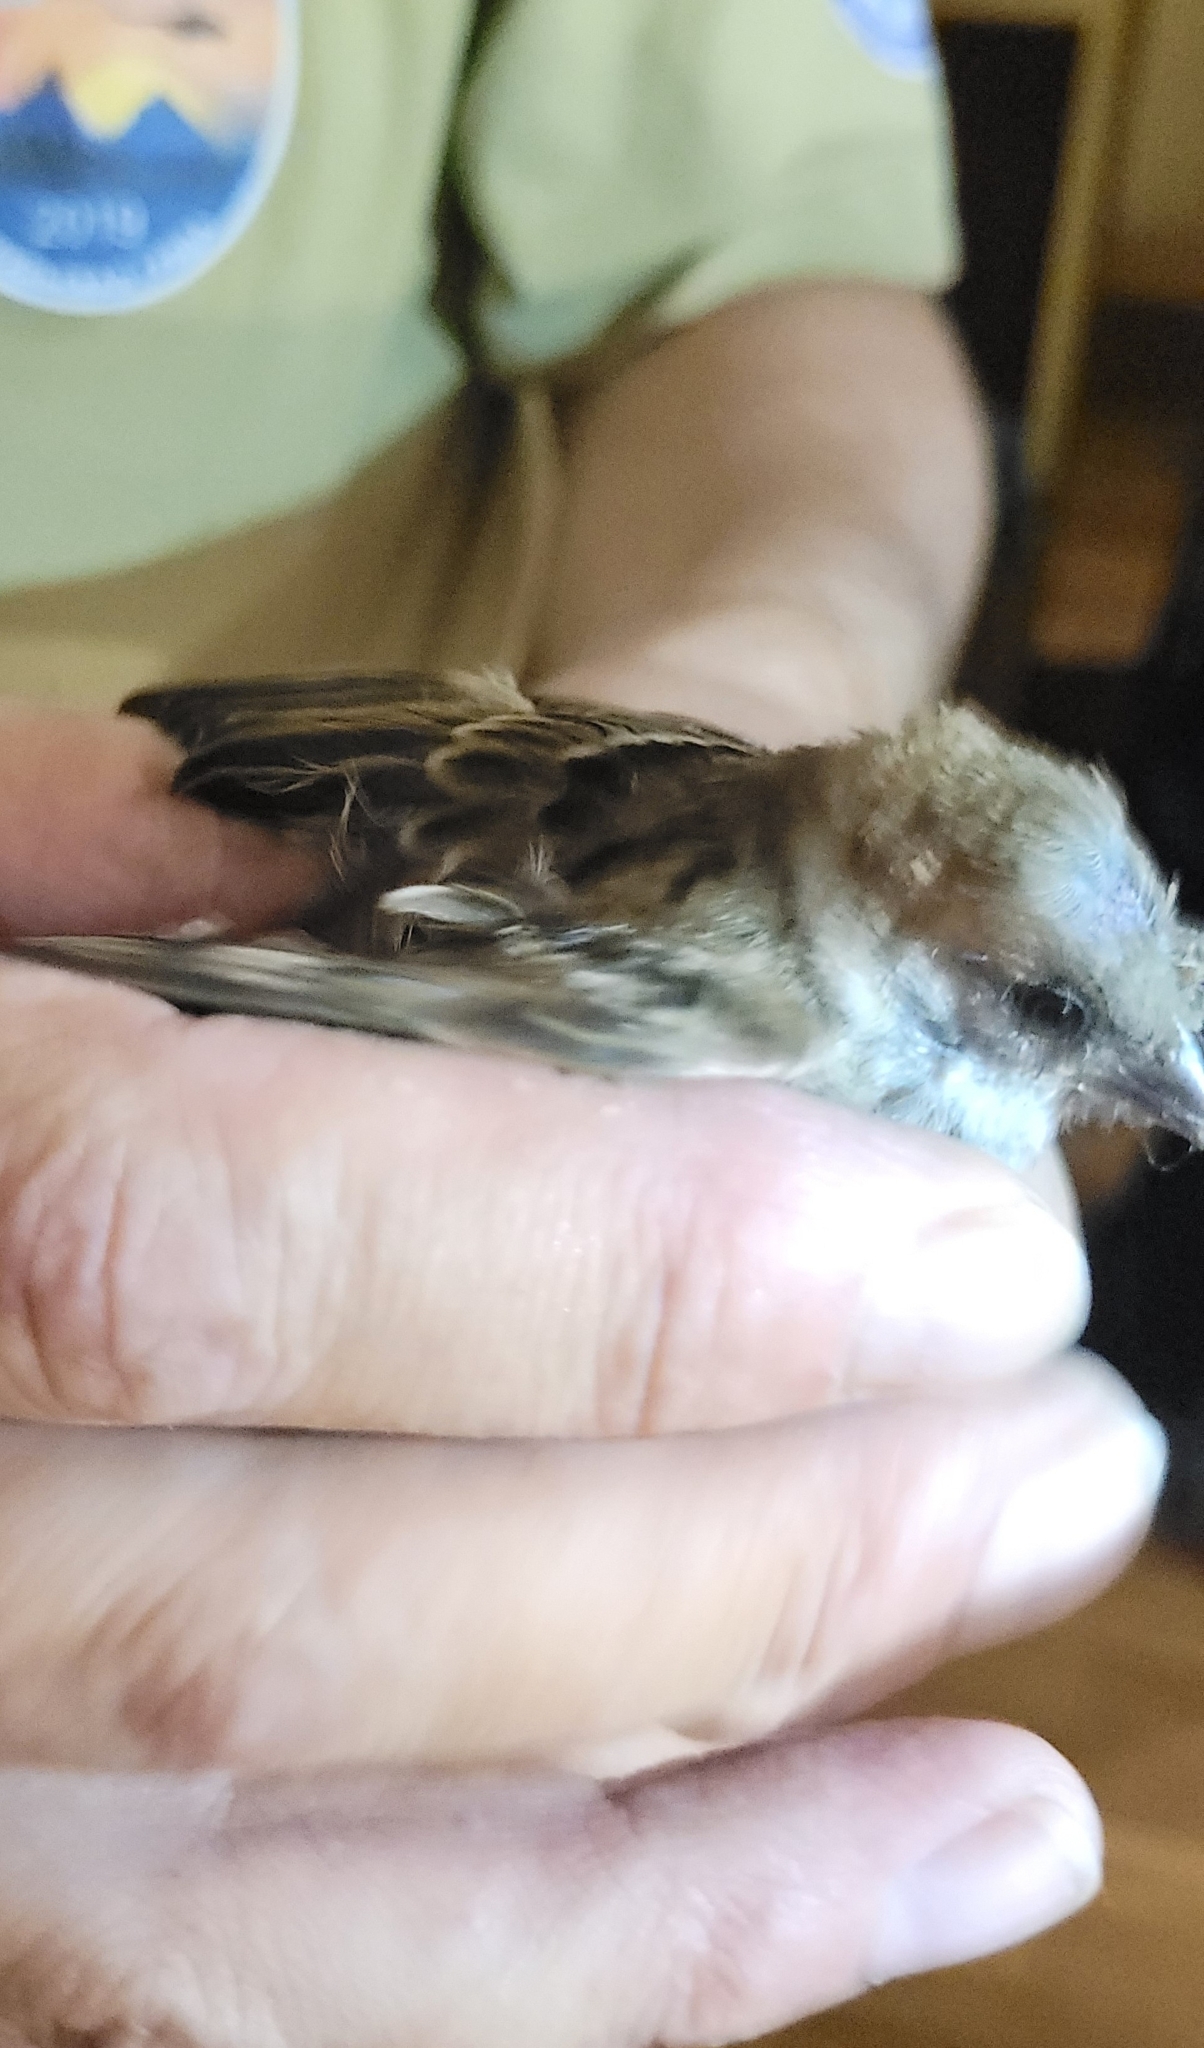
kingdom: Animalia
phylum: Chordata
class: Aves
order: Passeriformes
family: Passeridae
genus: Passer
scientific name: Passer montanus
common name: Eurasian tree sparrow
